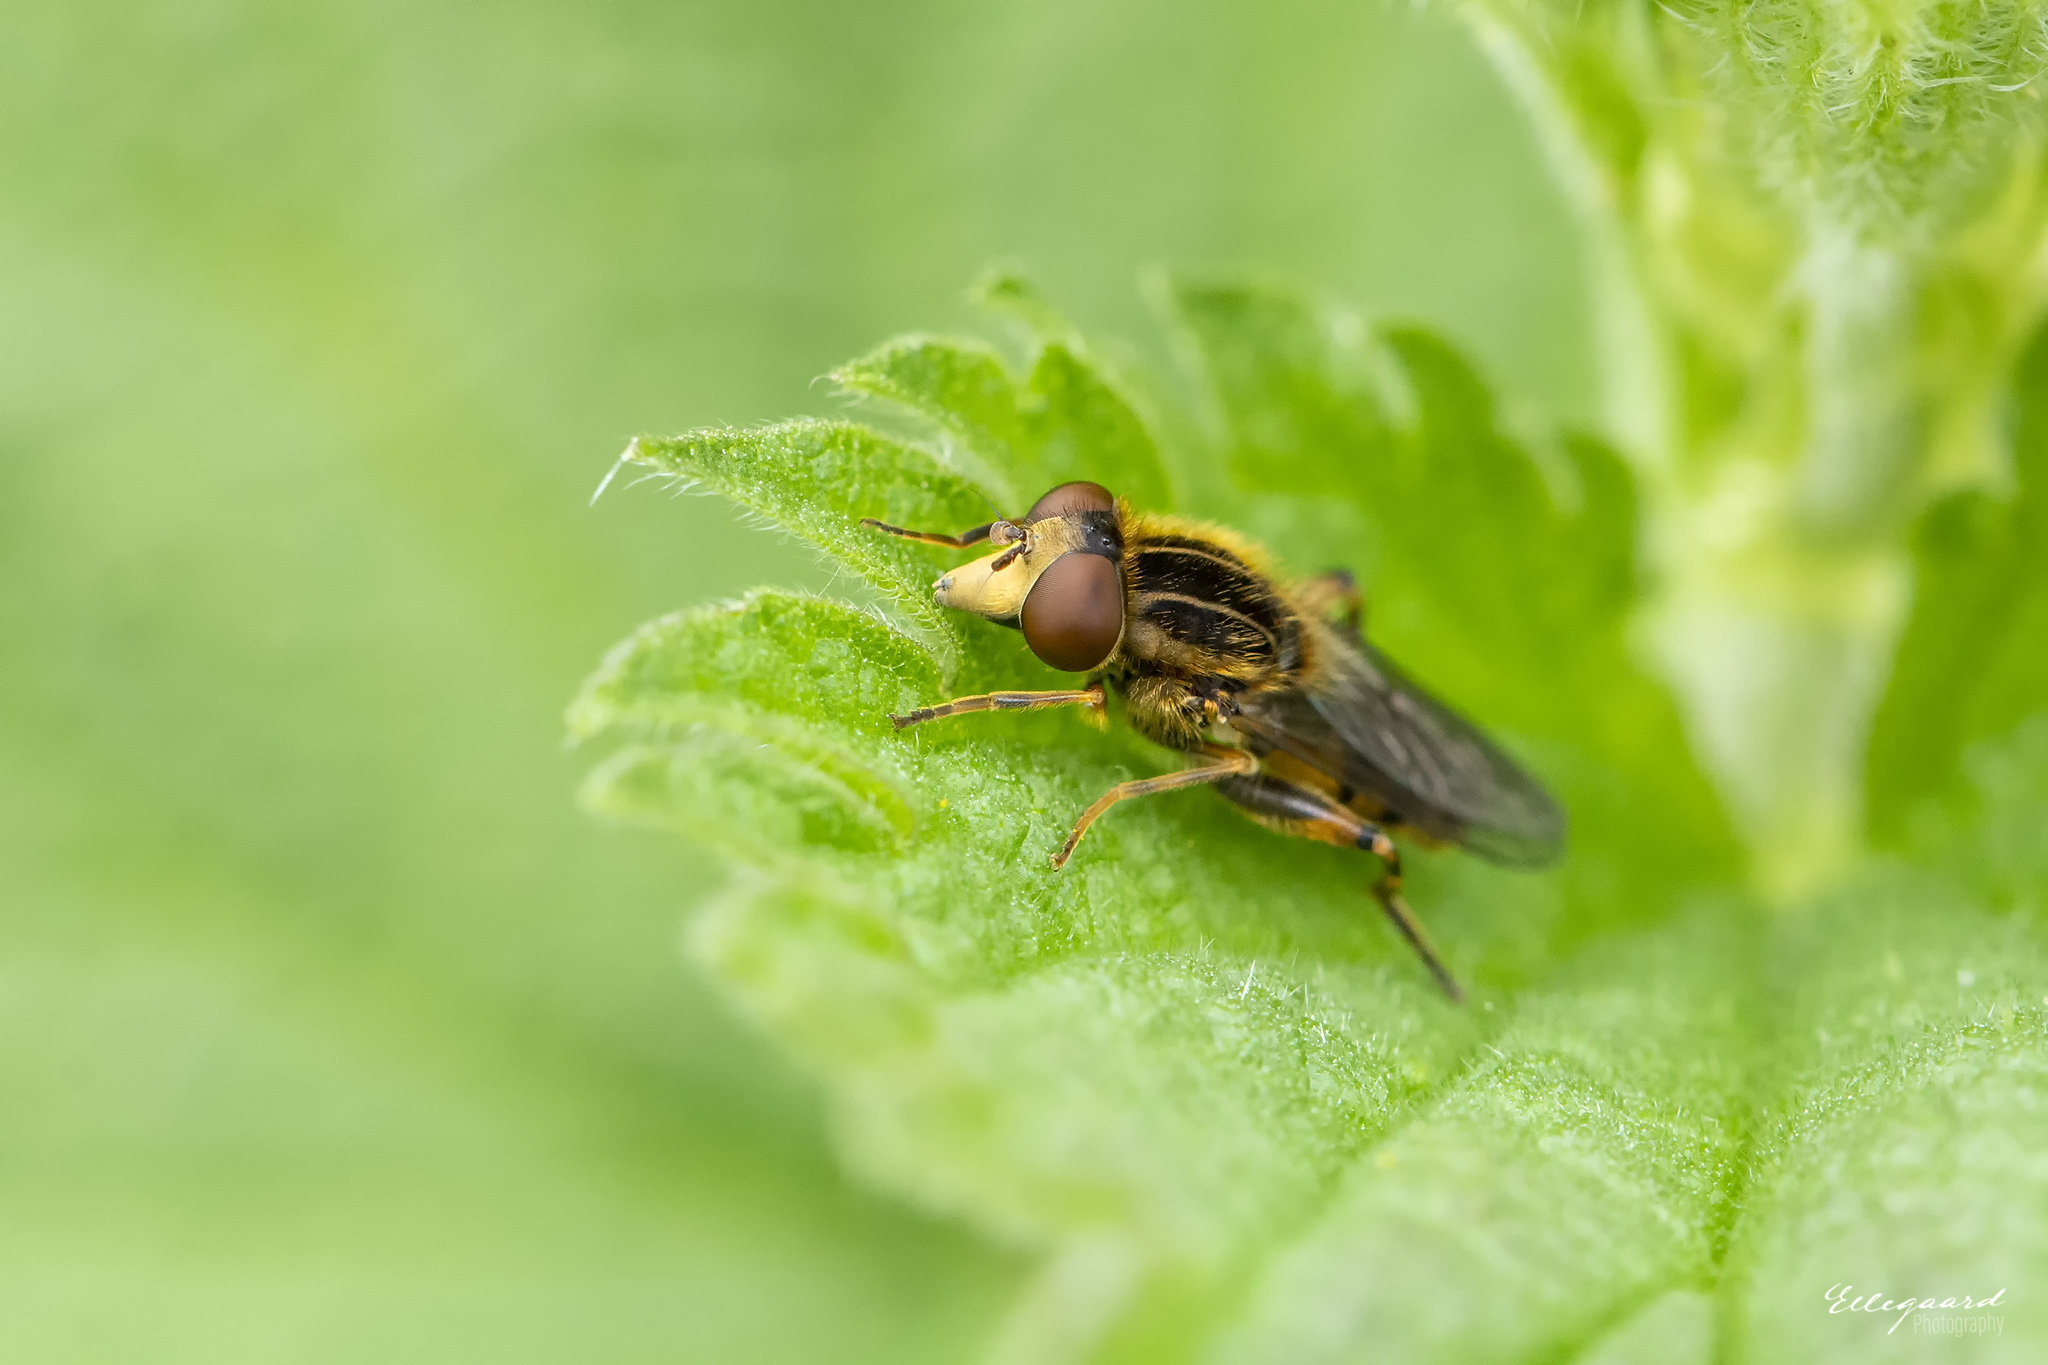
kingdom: Animalia
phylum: Arthropoda
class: Insecta
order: Diptera
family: Syrphidae
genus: Eurimyia
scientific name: Eurimyia lineatus
